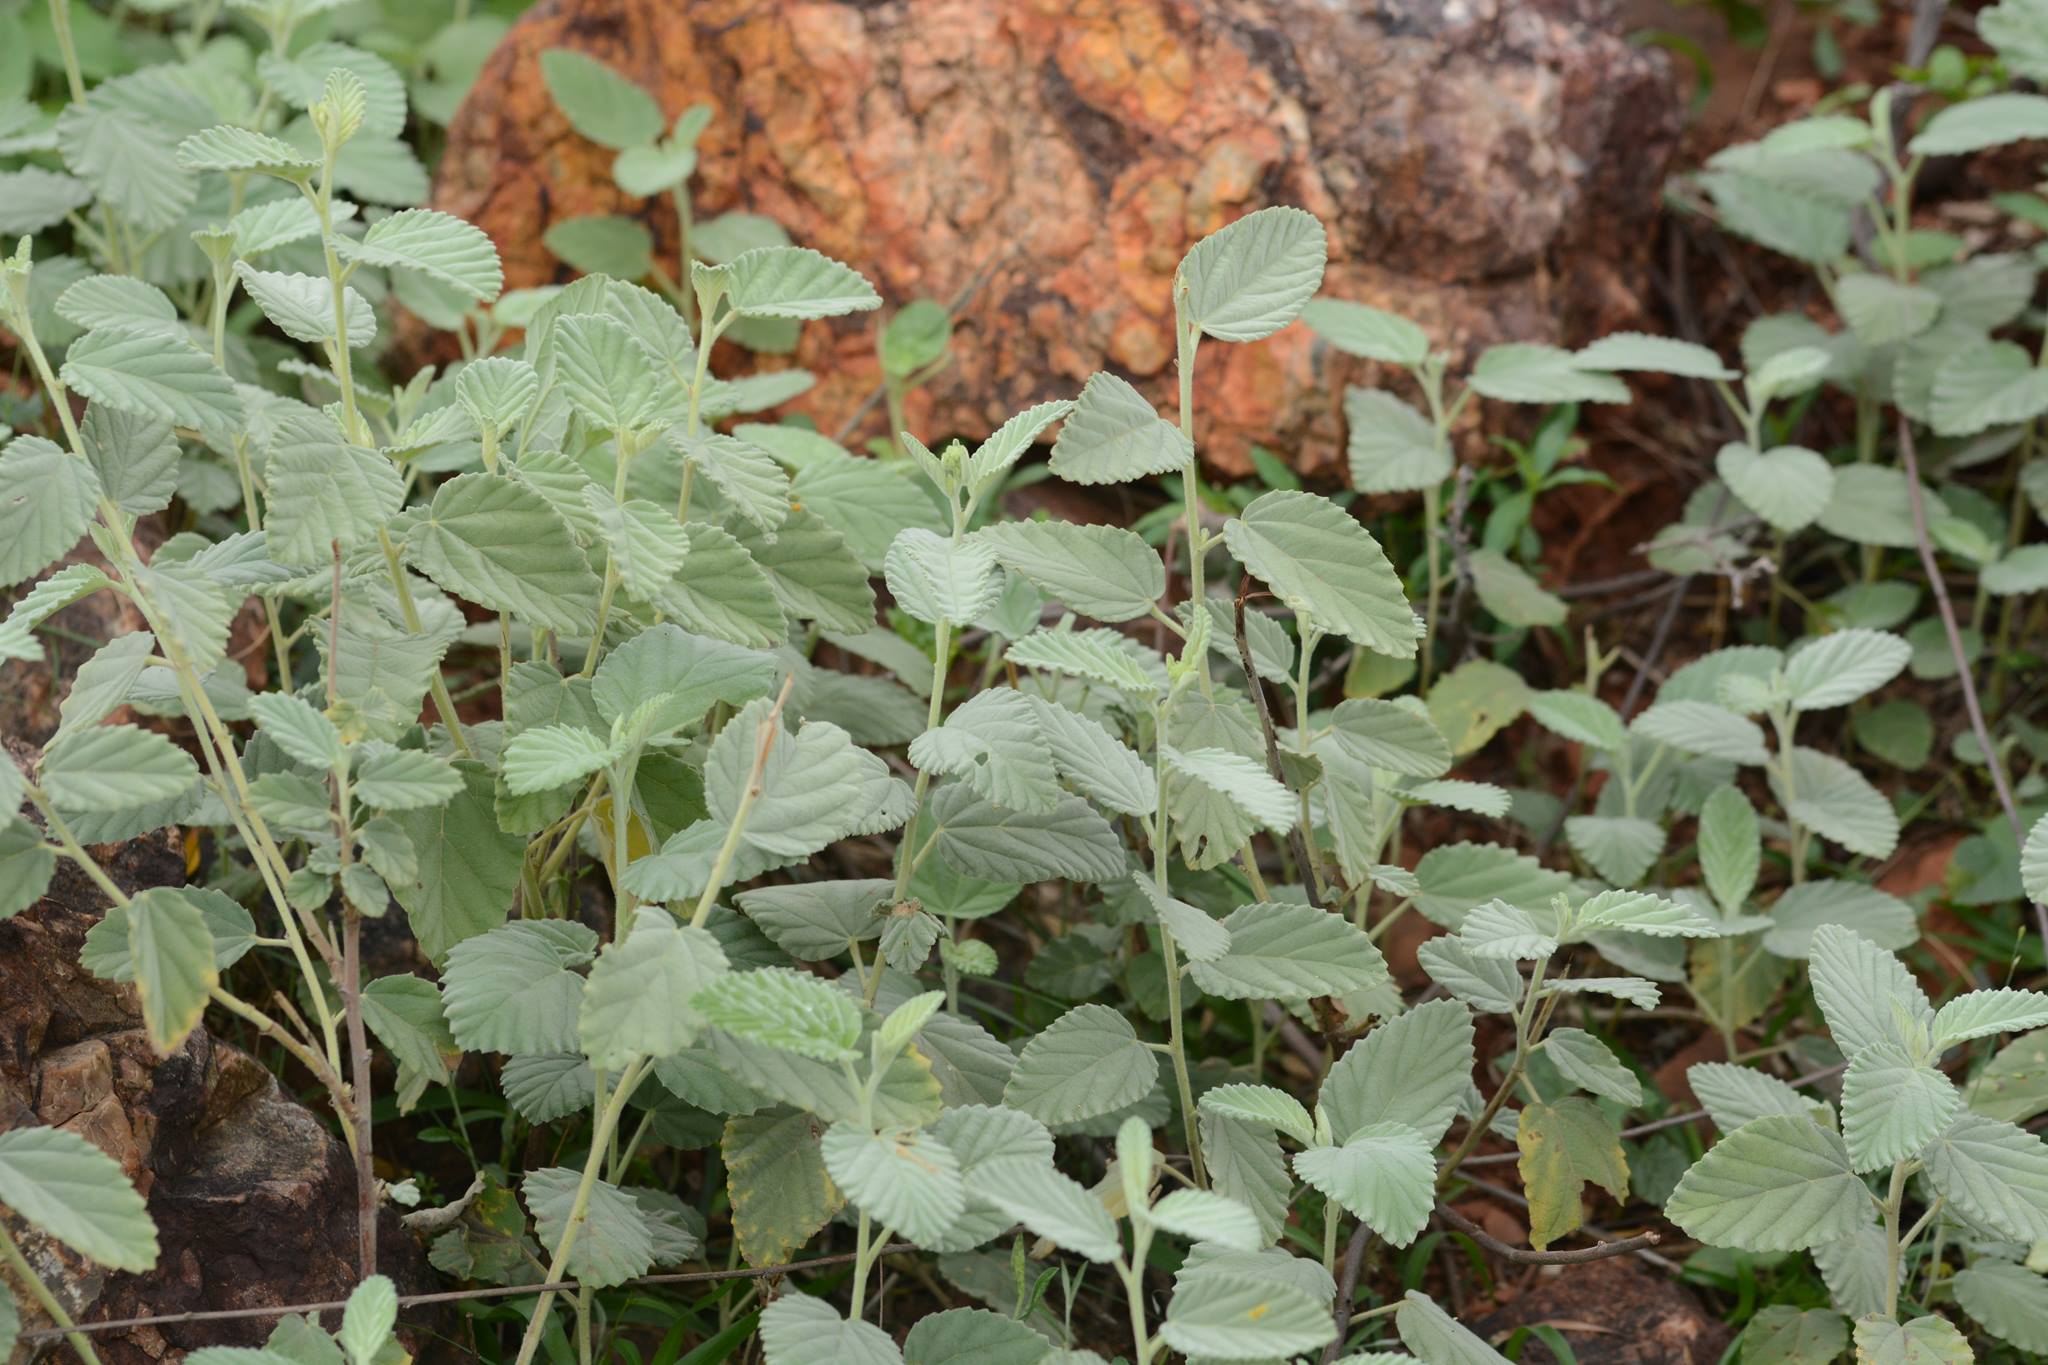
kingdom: Plantae
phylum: Tracheophyta
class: Magnoliopsida
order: Malvales
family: Malvaceae
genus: Waltheria
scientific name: Waltheria indica
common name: Leather-coat
